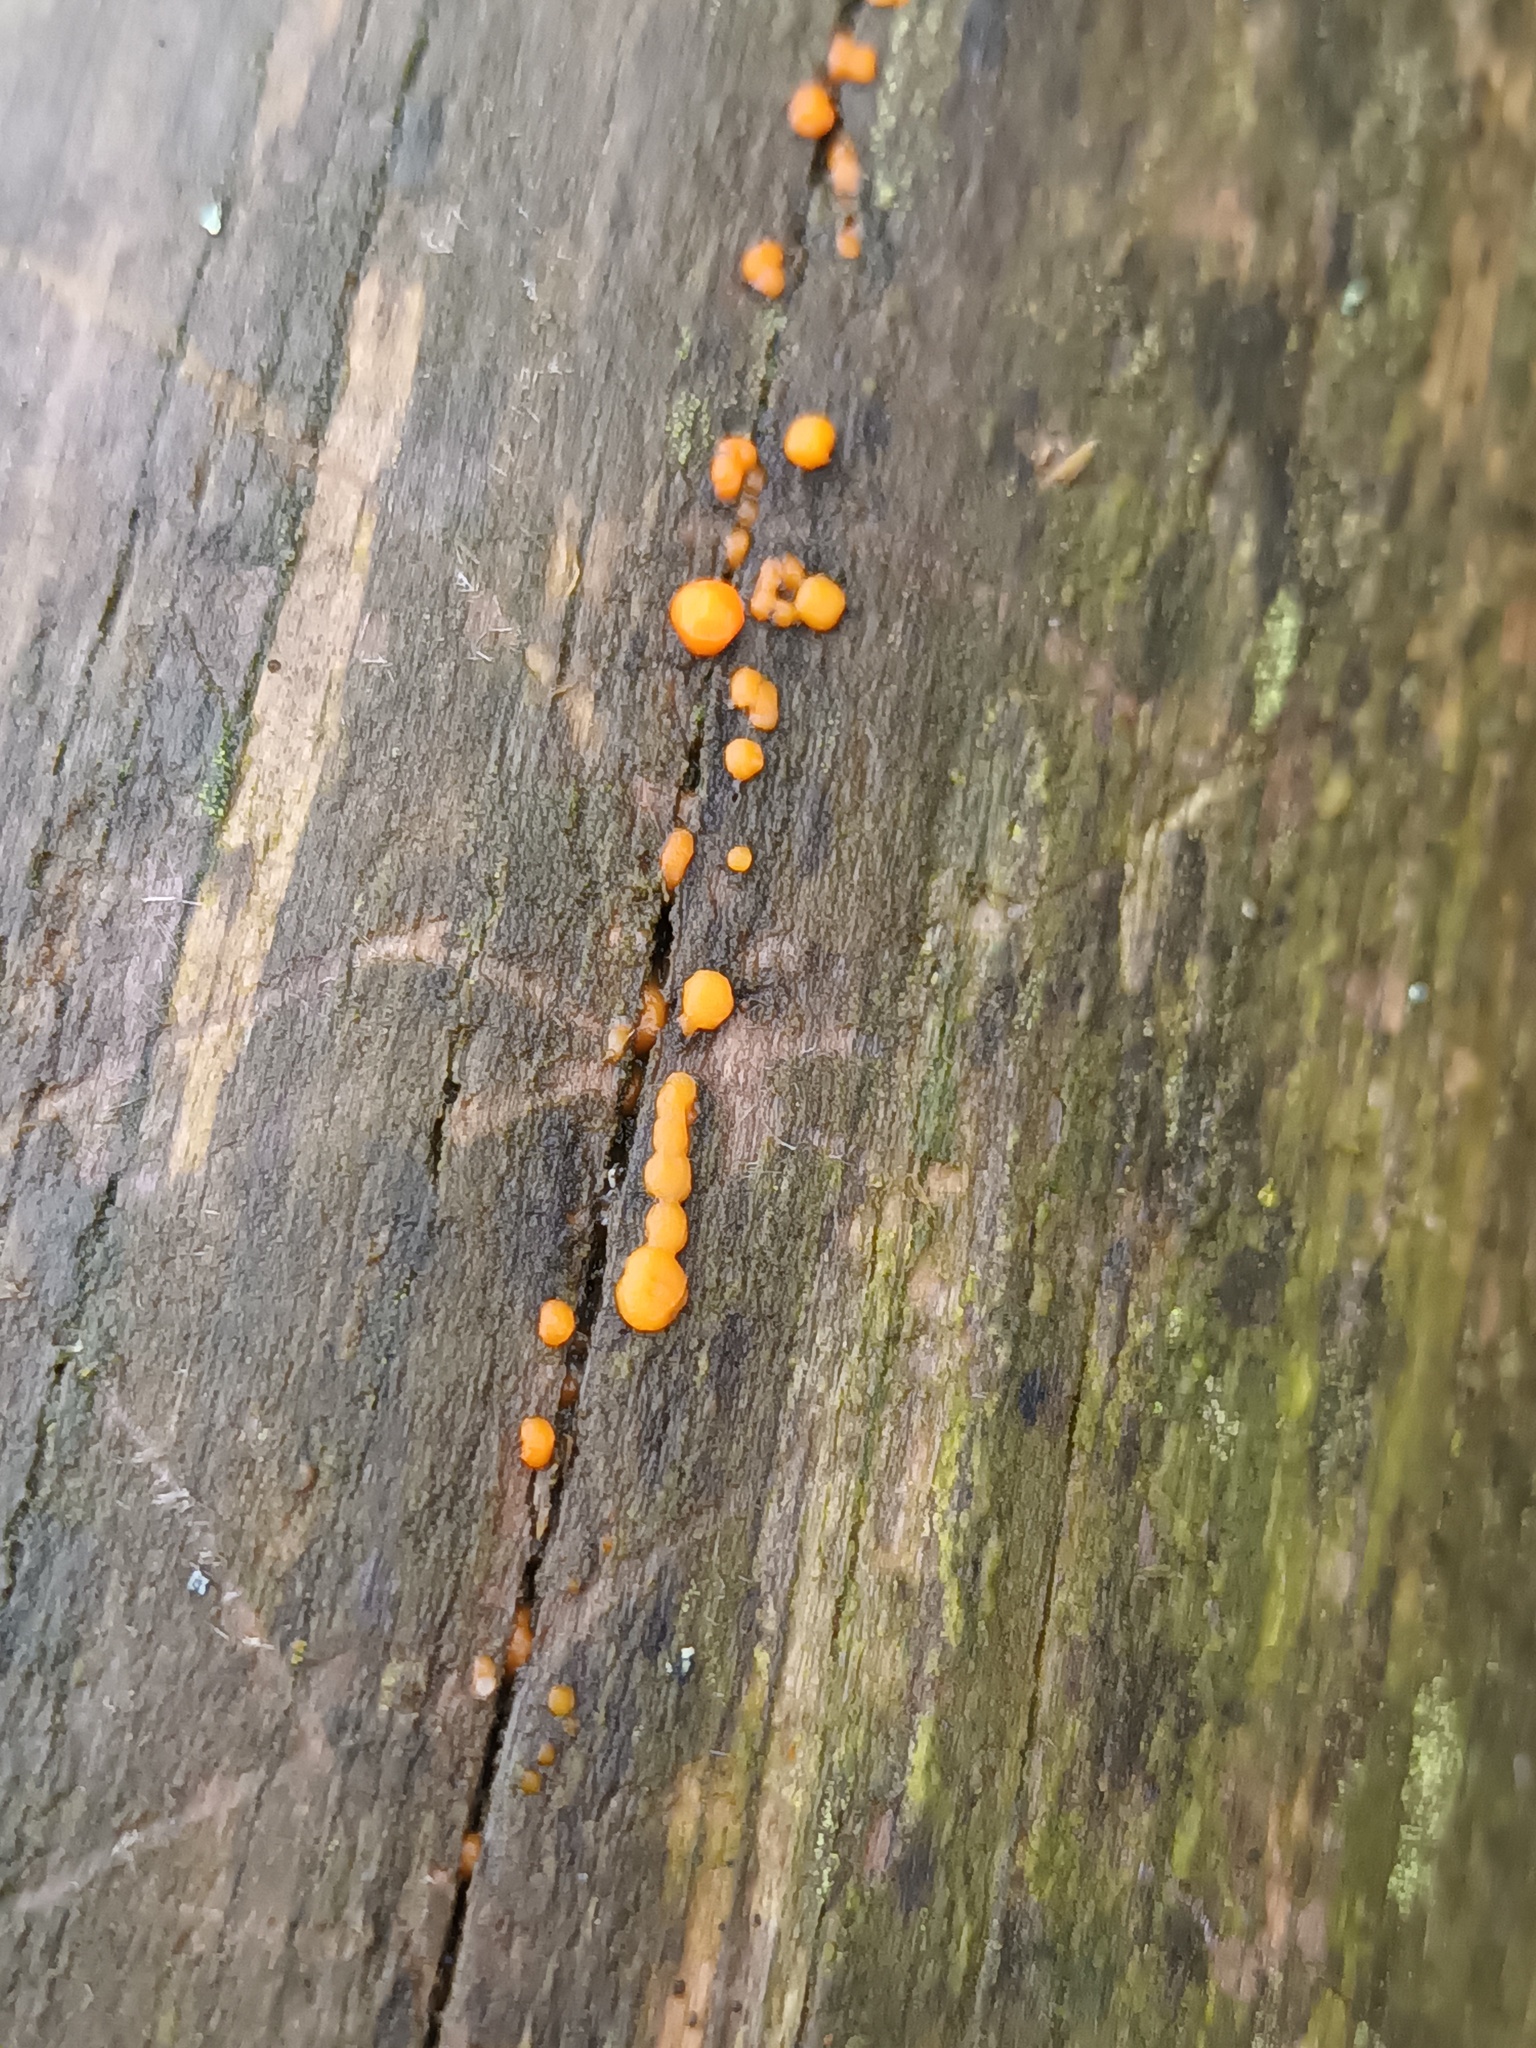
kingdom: Fungi
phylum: Basidiomycota
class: Dacrymycetes
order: Dacrymycetales
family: Dacrymycetaceae
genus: Dacrymyces
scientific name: Dacrymyces stillatus
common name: Common jelly spot
